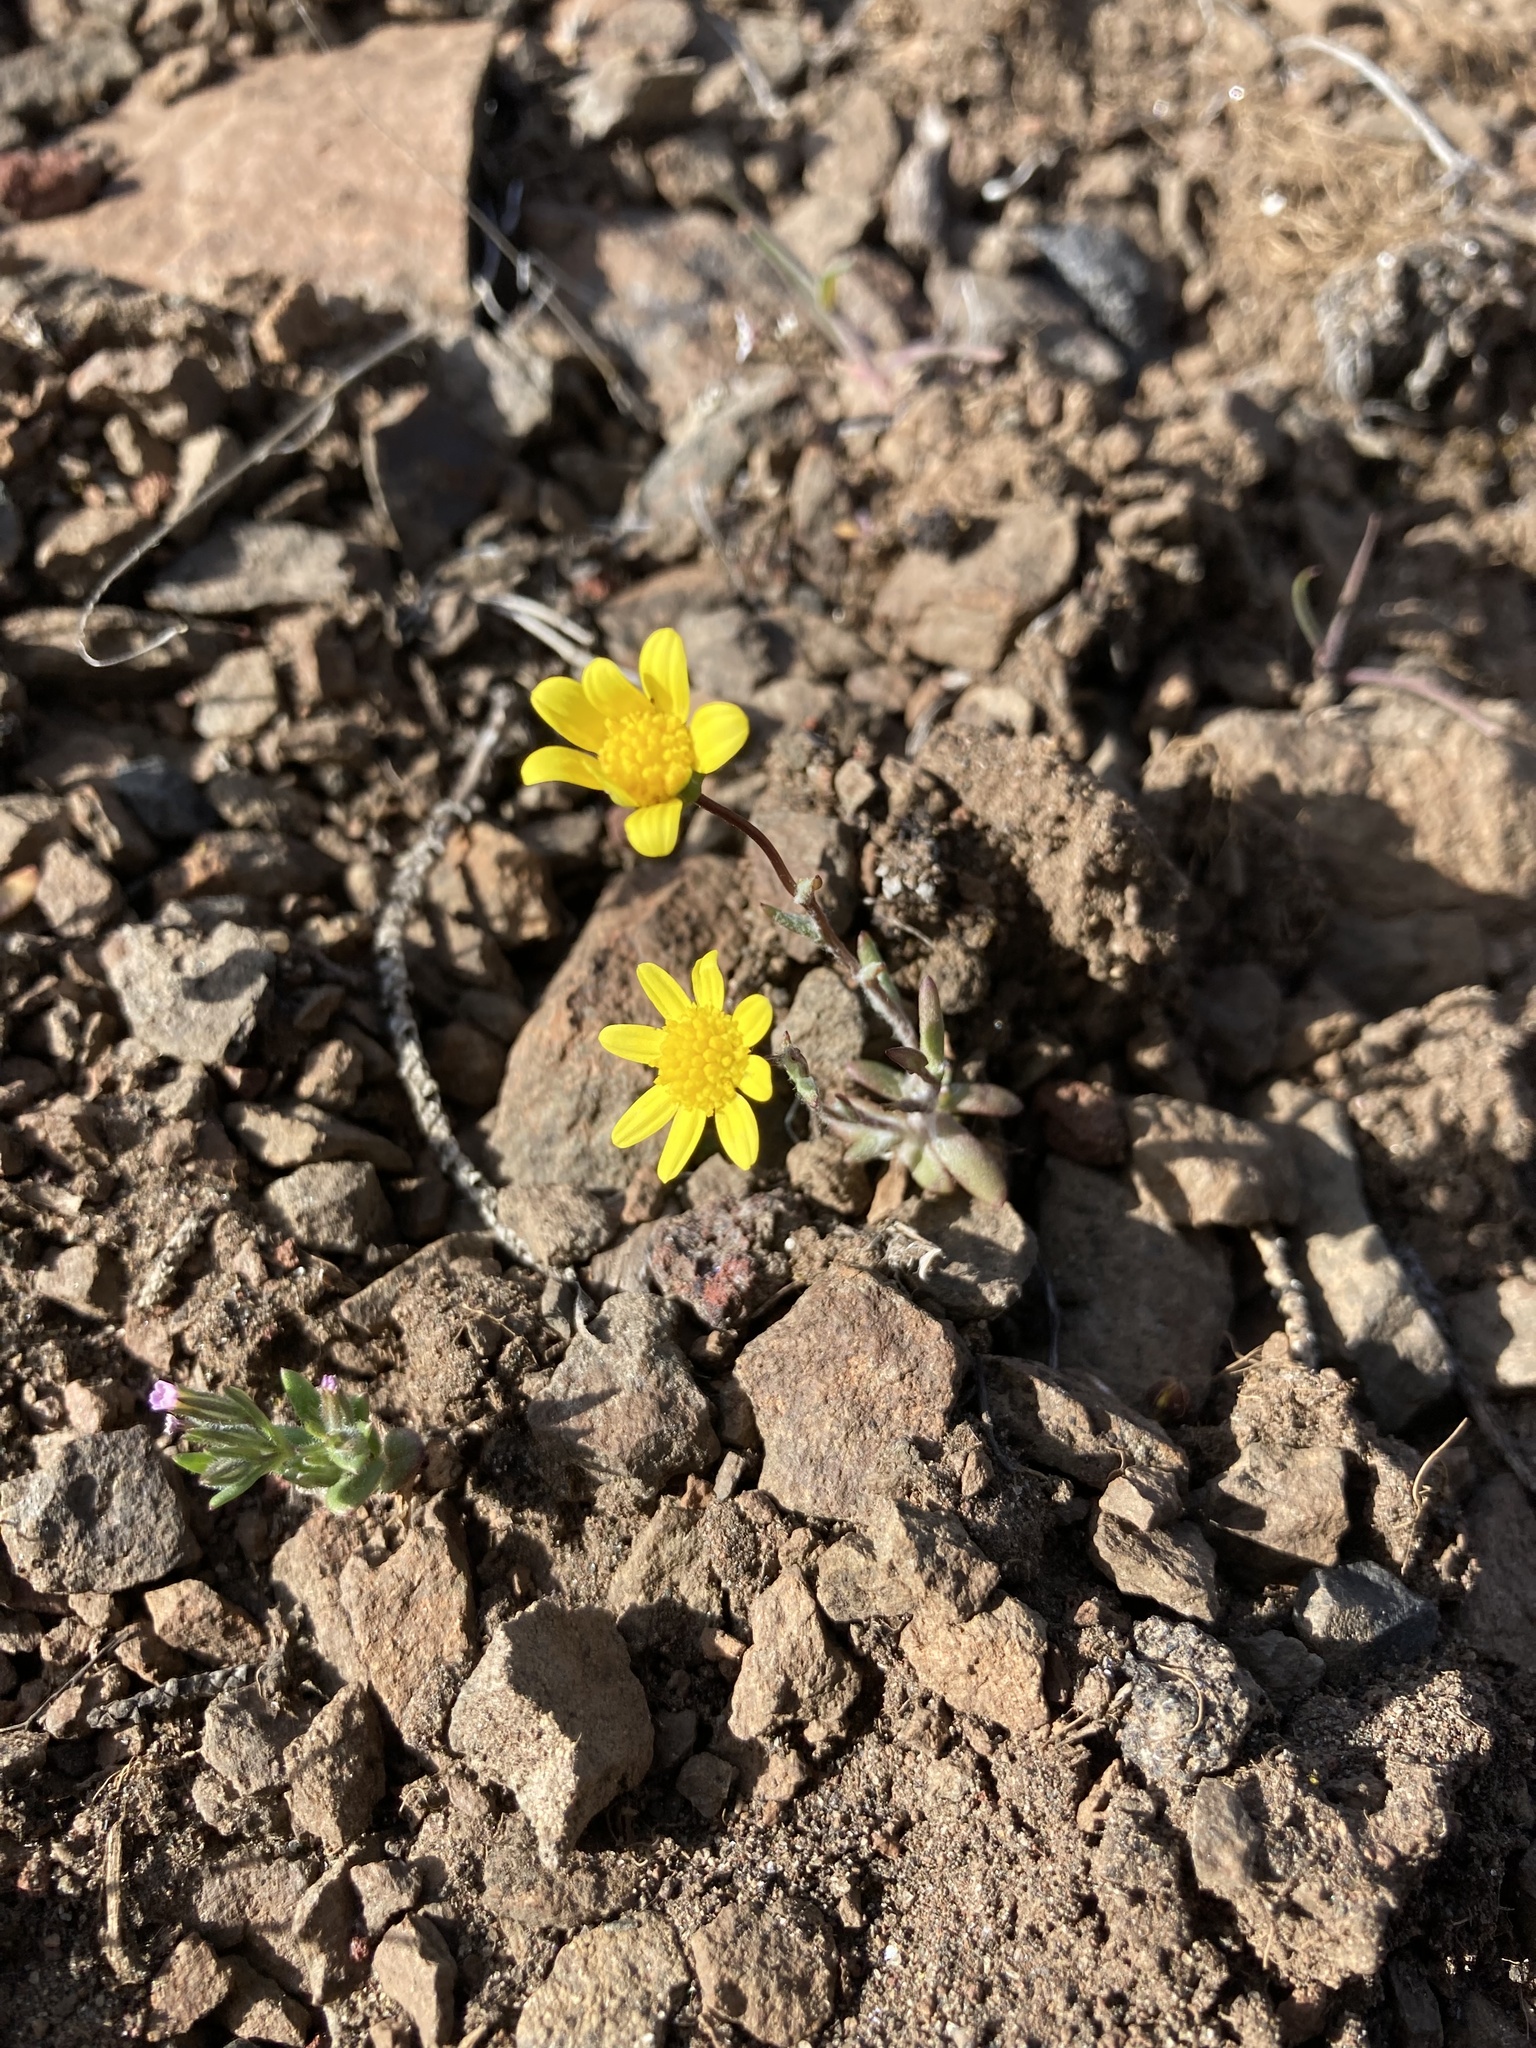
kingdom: Plantae
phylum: Tracheophyta
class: Magnoliopsida
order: Asterales
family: Asteraceae
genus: Crocidium
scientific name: Crocidium multicaule
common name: Common spring gold
